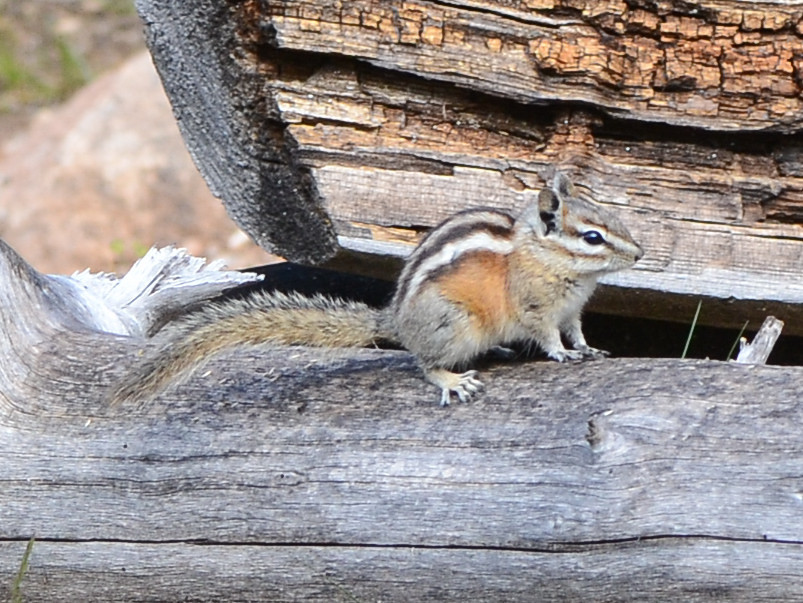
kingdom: Animalia
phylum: Chordata
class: Mammalia
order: Rodentia
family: Sciuridae
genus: Tamias
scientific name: Tamias minimus
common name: Least chipmunk
